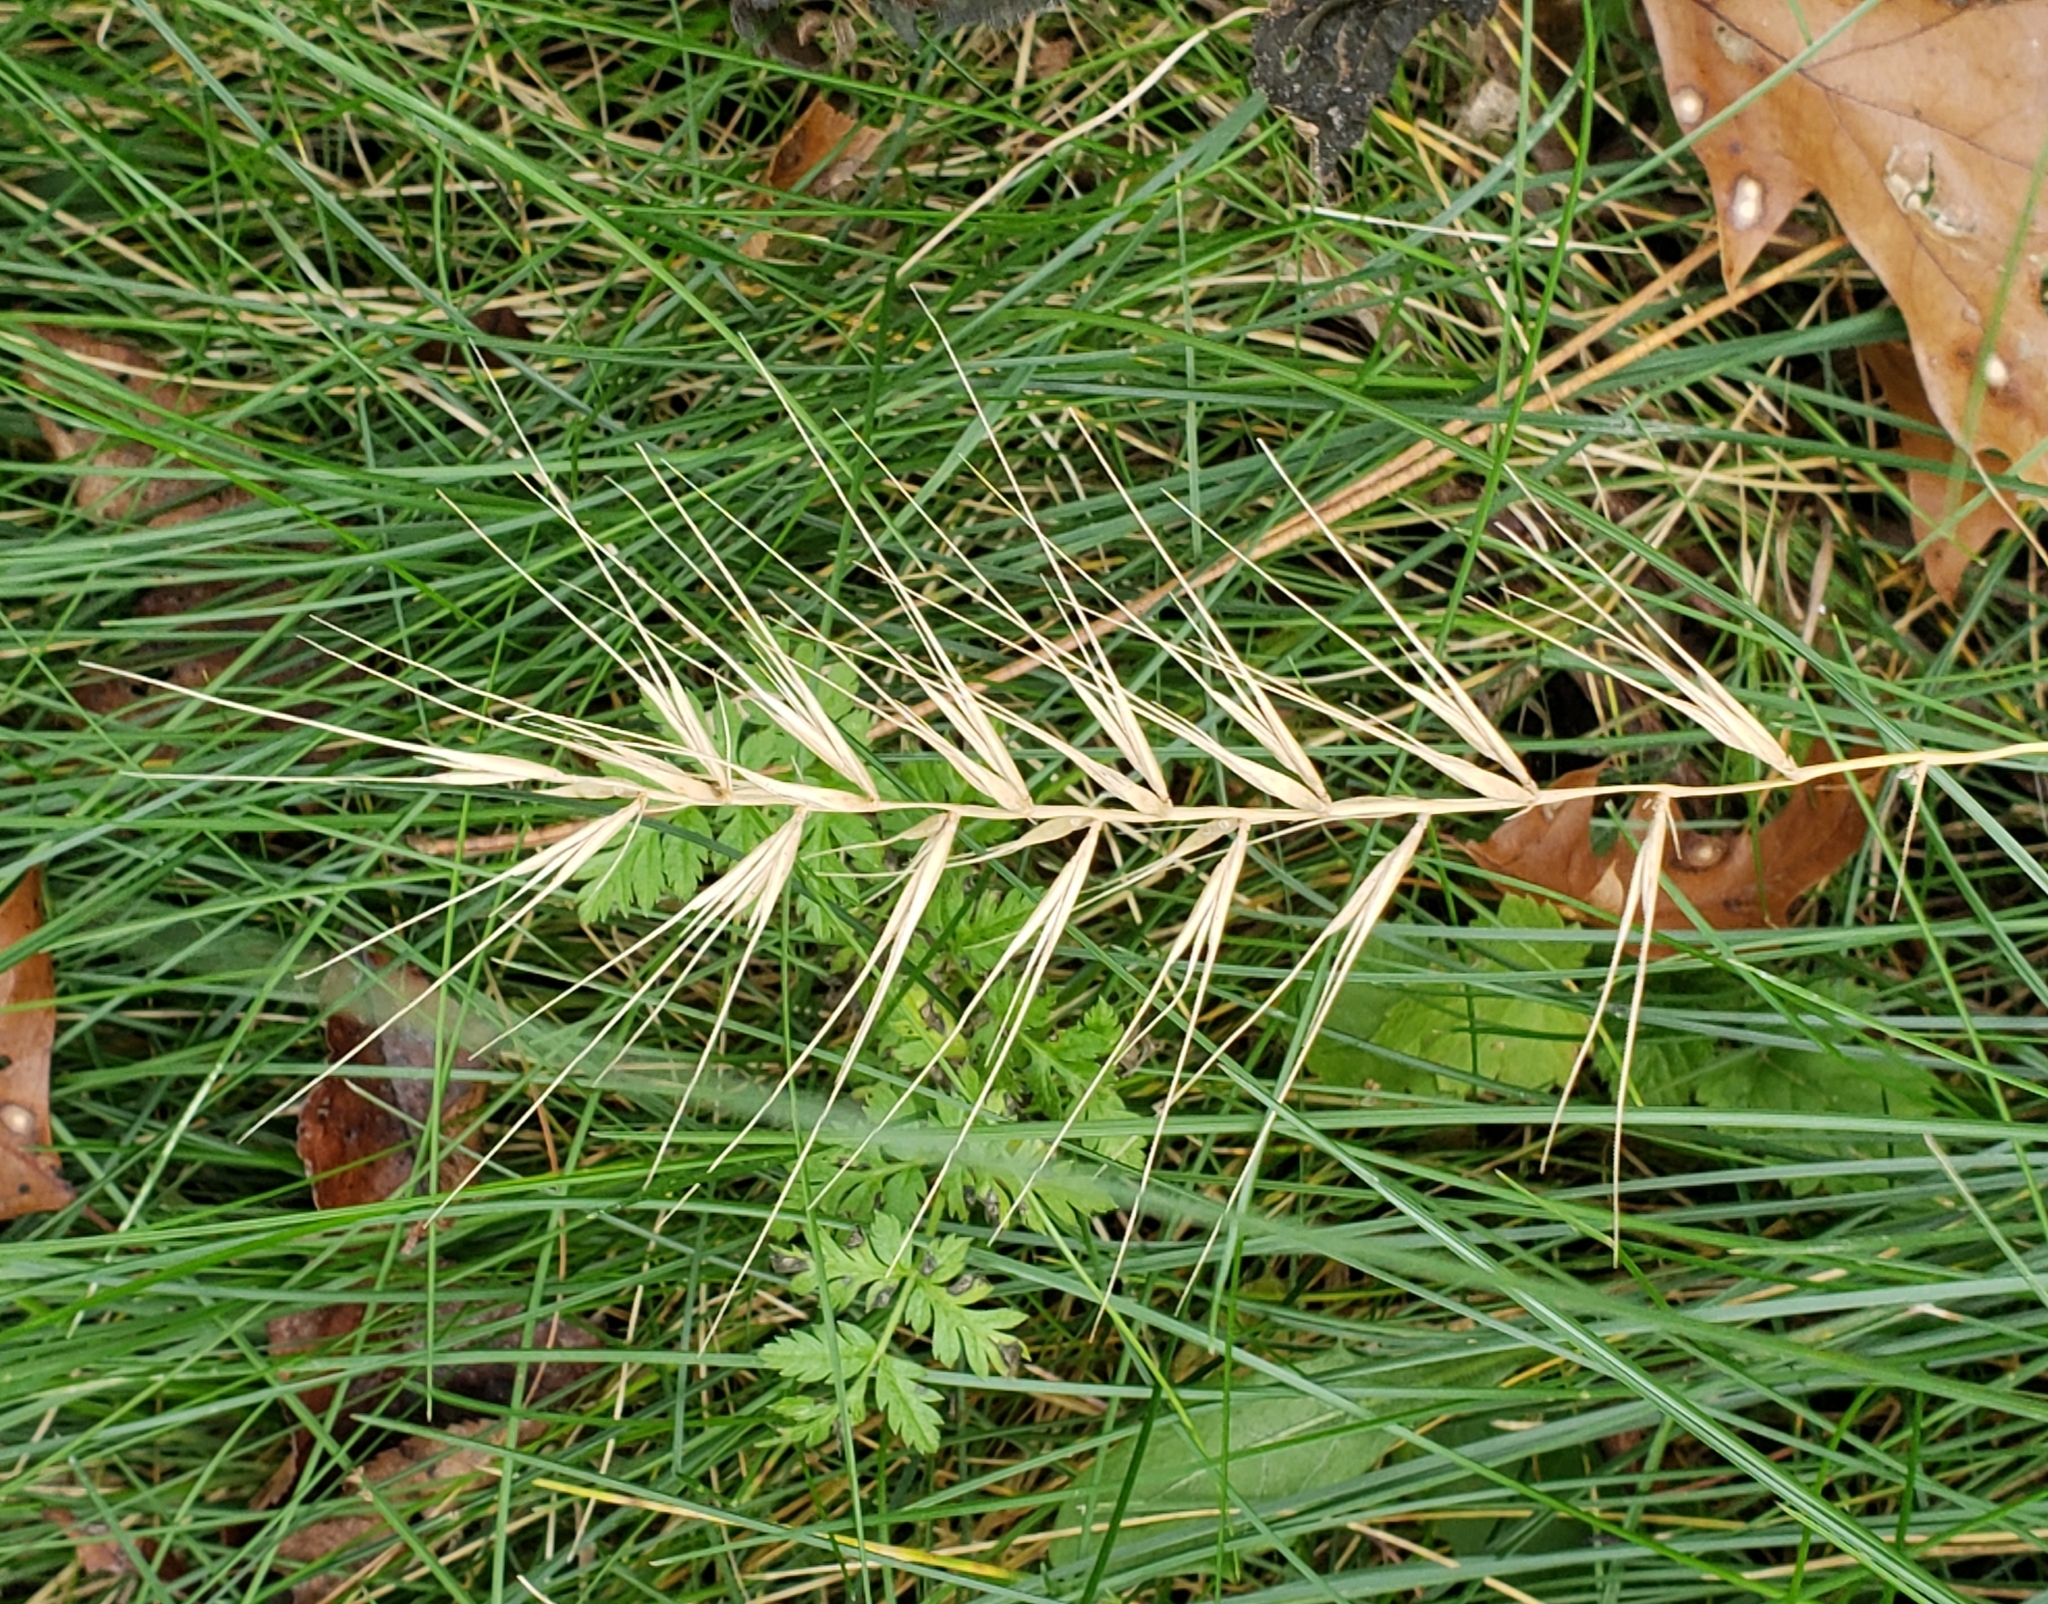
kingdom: Plantae
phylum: Tracheophyta
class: Liliopsida
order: Poales
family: Poaceae
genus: Elymus
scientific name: Elymus hystrix
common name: Bottlebrush grass
